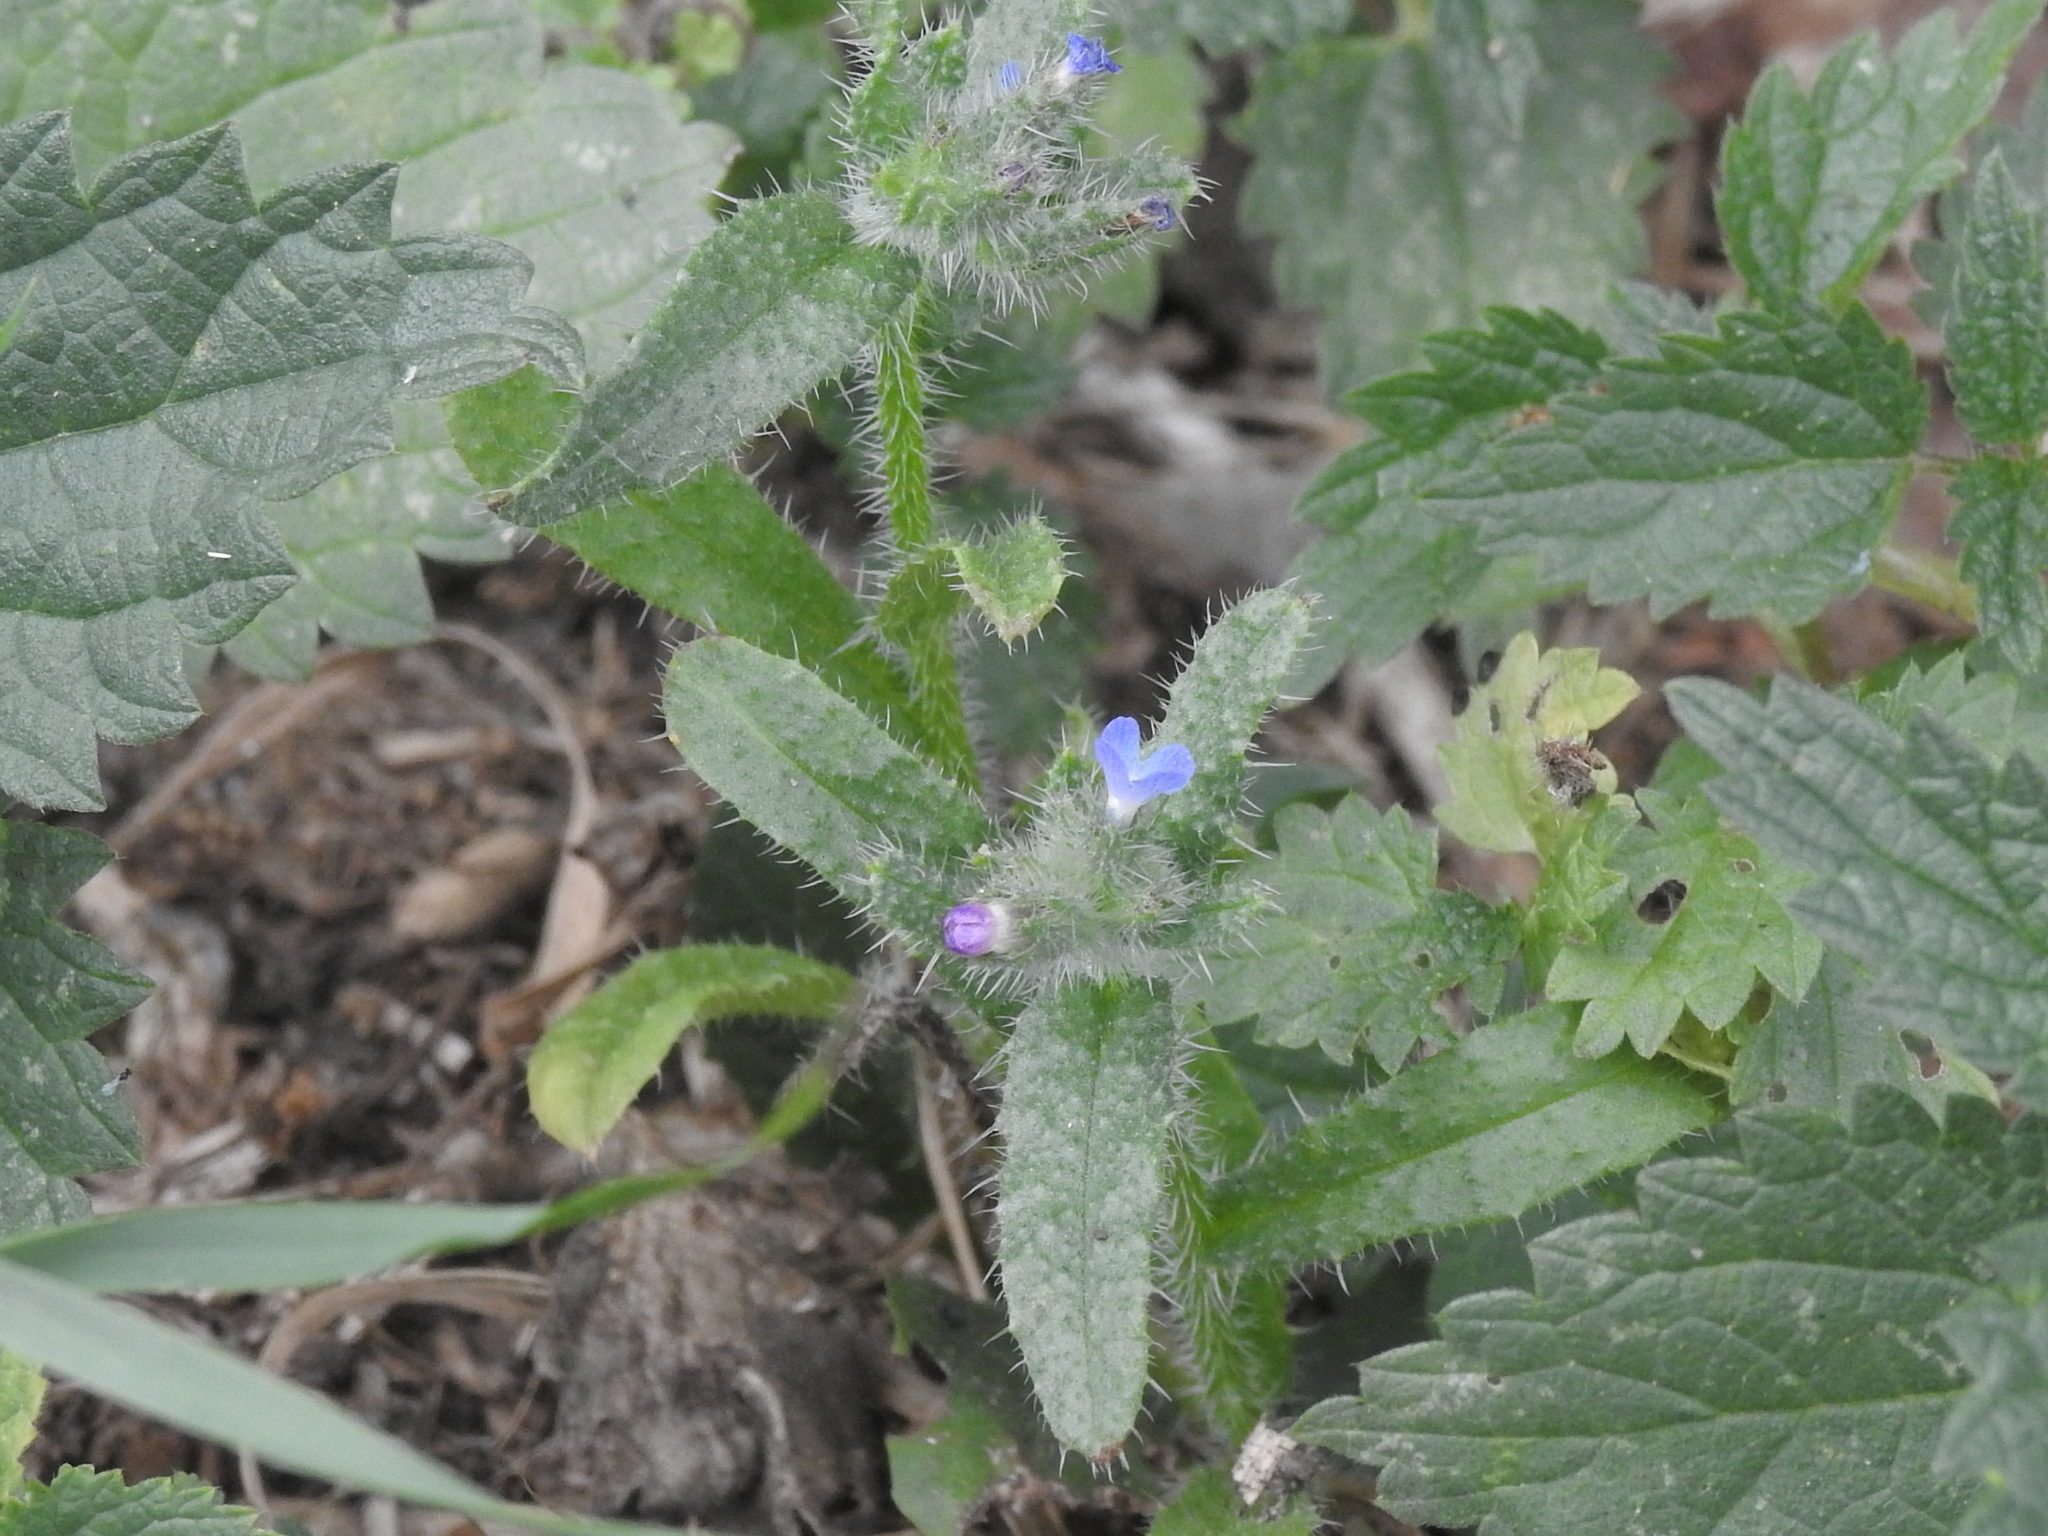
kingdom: Plantae
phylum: Tracheophyta
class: Magnoliopsida
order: Boraginales
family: Boraginaceae
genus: Lycopsis
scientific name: Lycopsis arvensis
